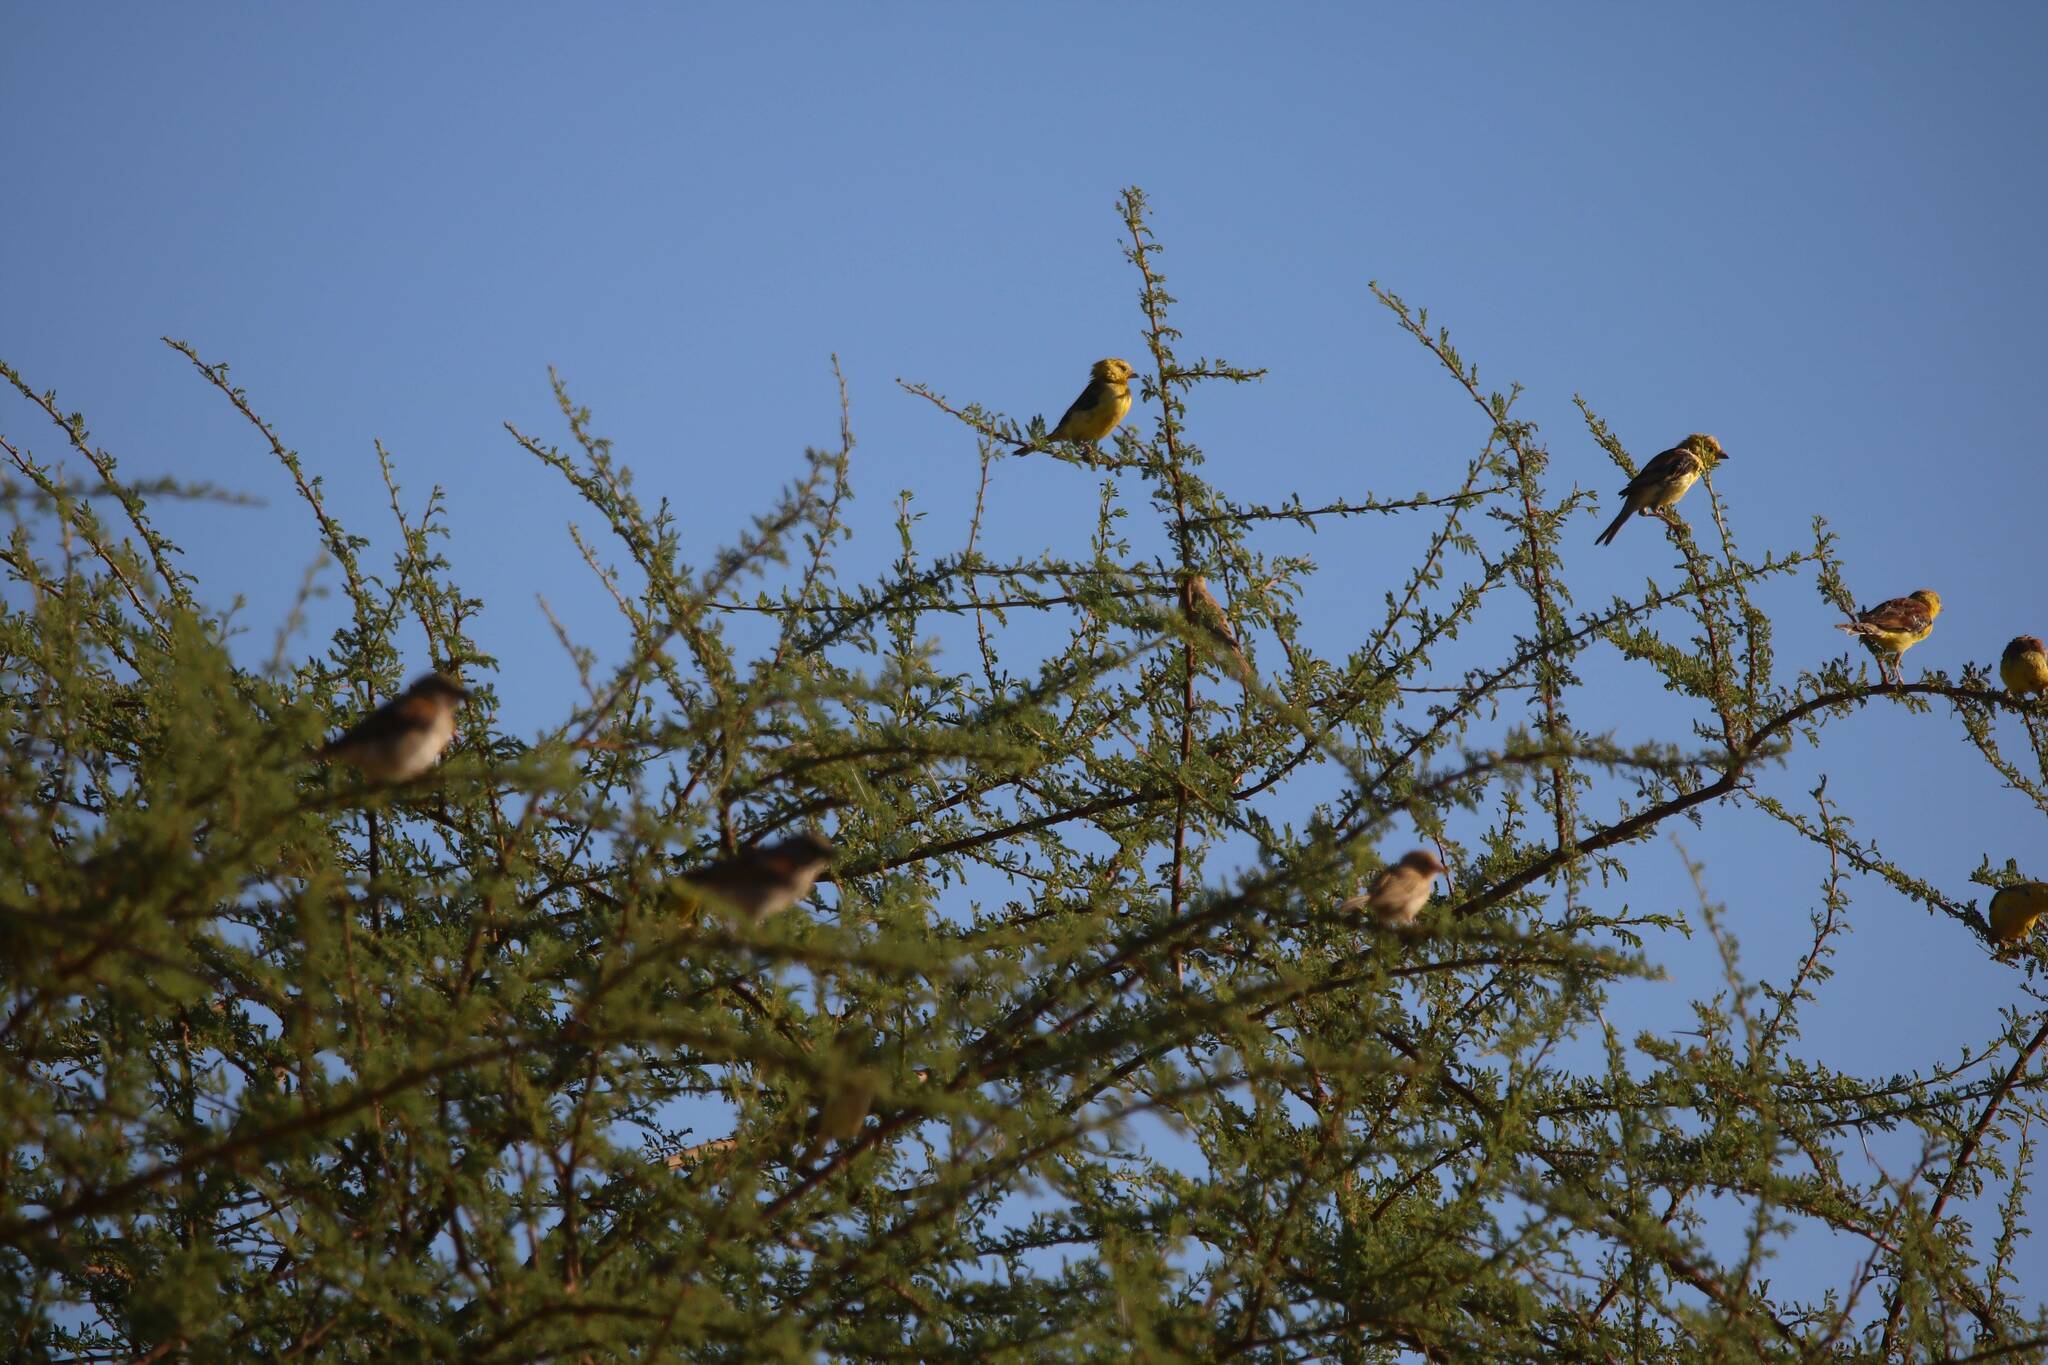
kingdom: Animalia
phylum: Chordata
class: Aves
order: Passeriformes
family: Passeridae
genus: Passer
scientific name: Passer luteus
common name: Sudan golden sparrow
